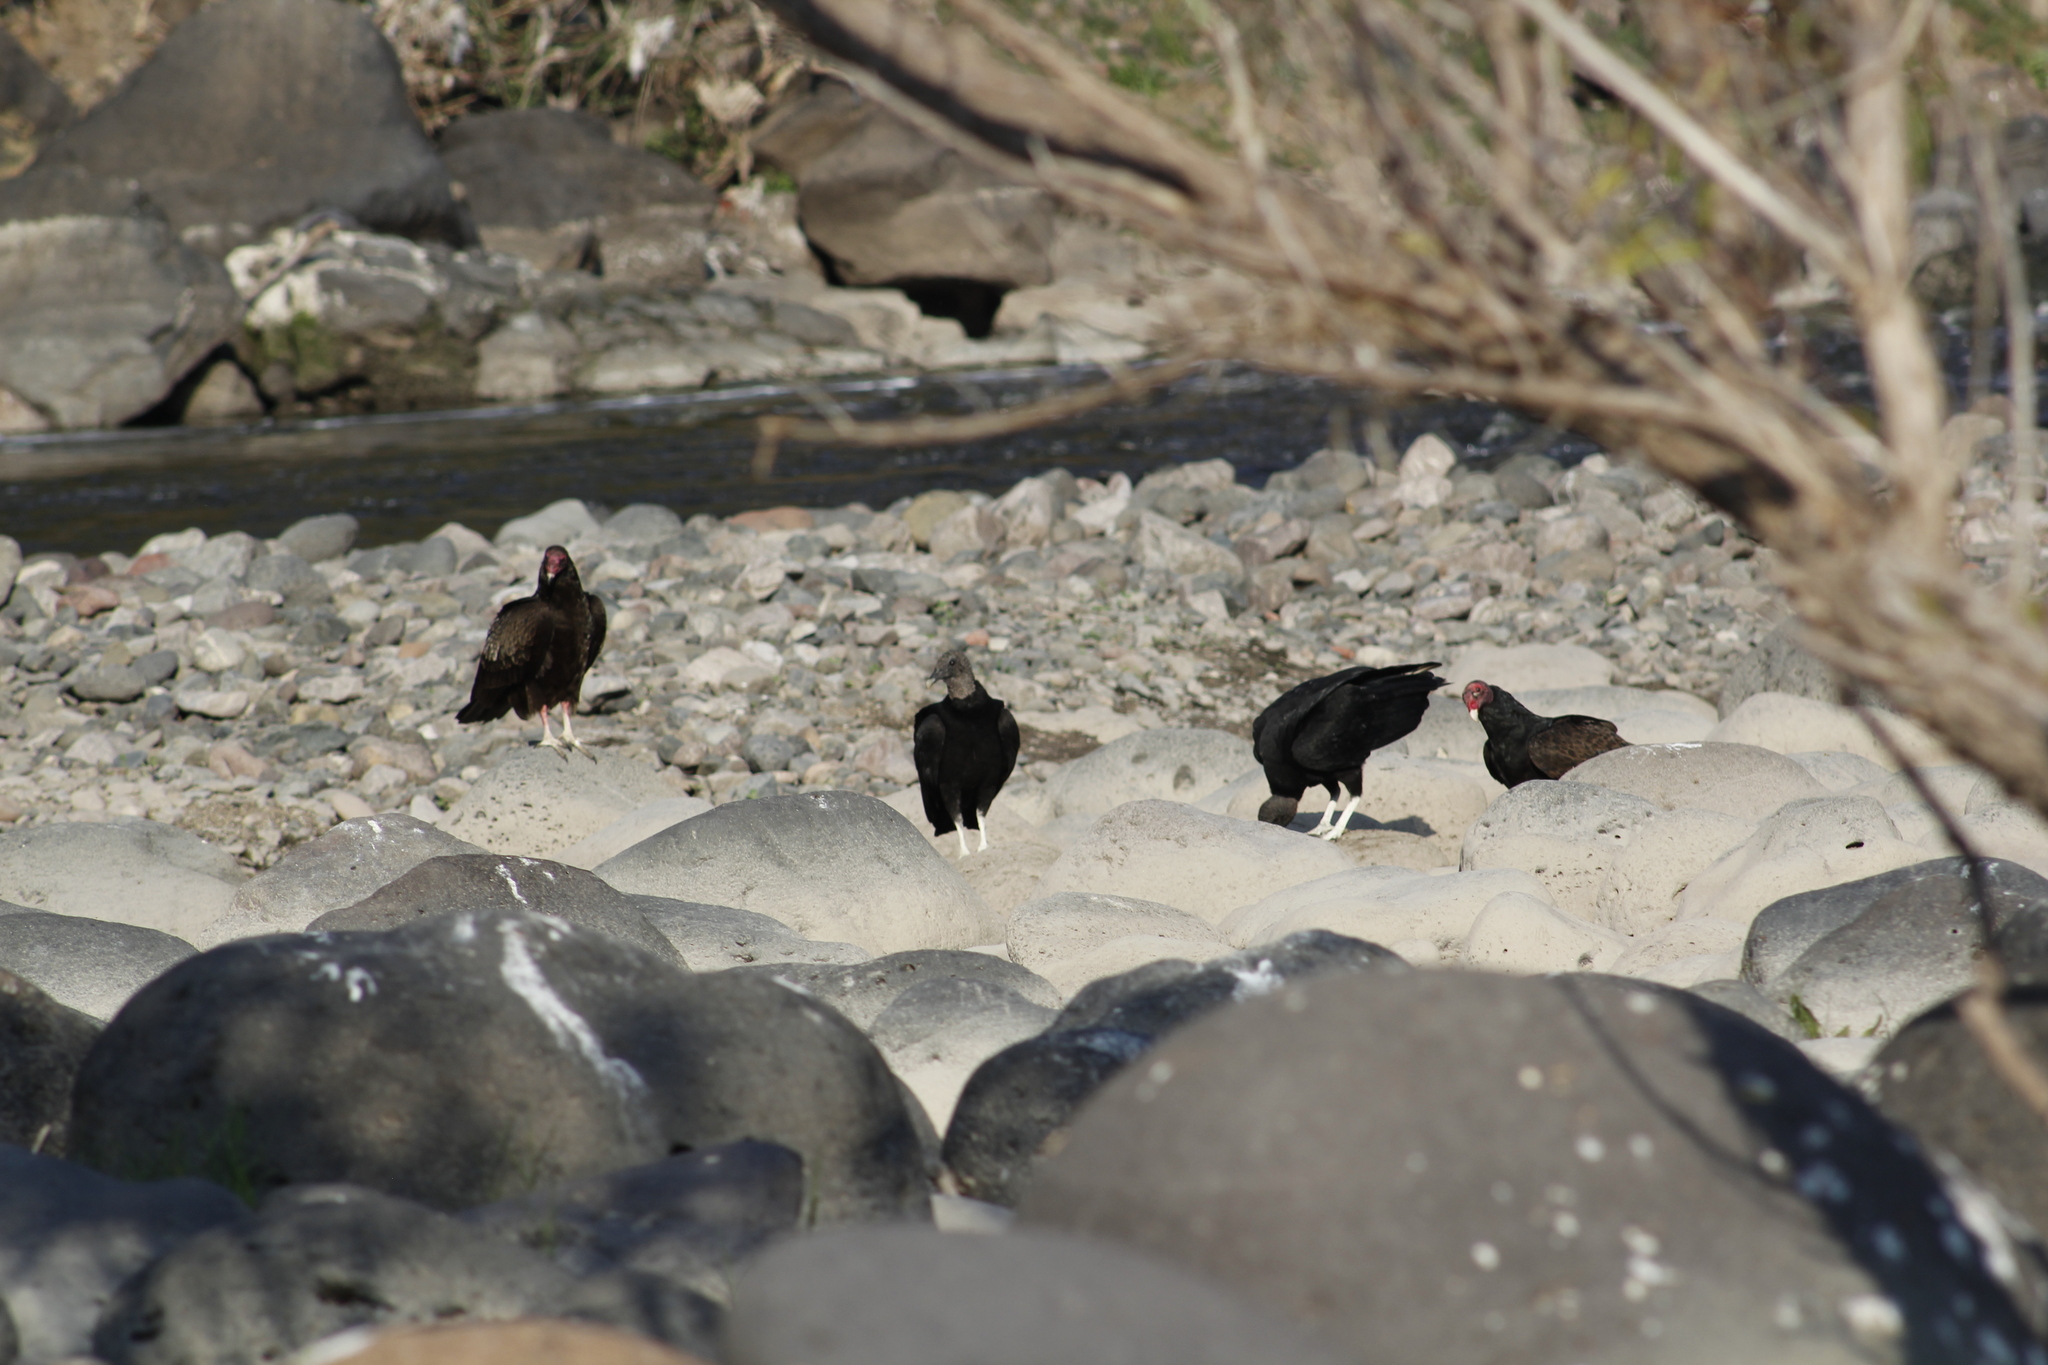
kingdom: Animalia
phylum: Chordata
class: Aves
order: Accipitriformes
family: Cathartidae
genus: Coragyps
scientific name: Coragyps atratus
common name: Black vulture
